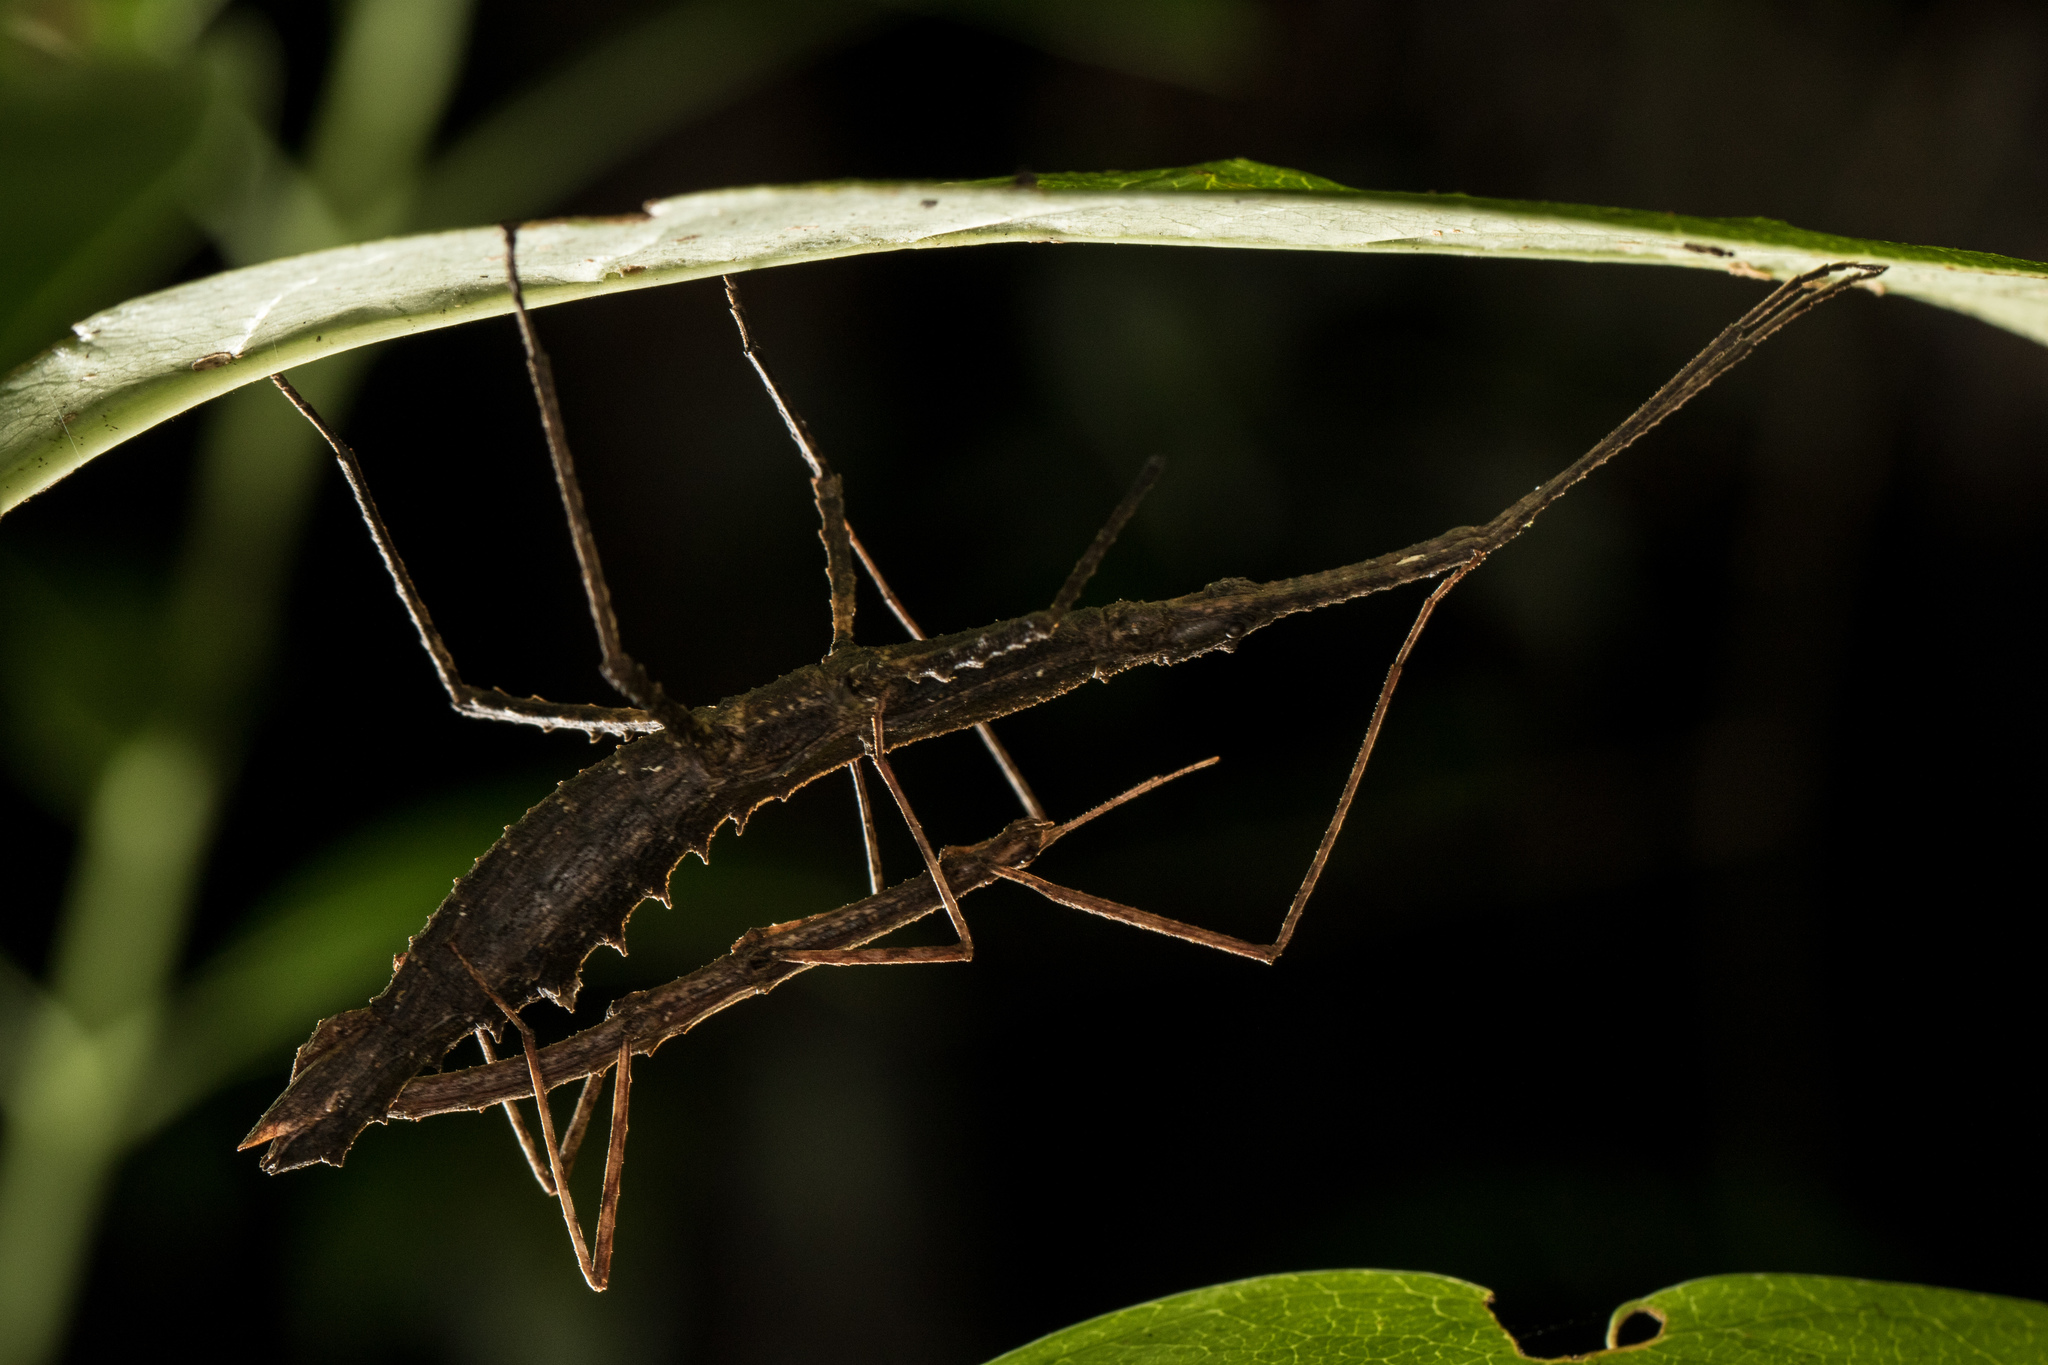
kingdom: Animalia
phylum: Arthropoda
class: Insecta
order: Phasmida
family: Phasmatidae
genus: Spinotectarchus
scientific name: Spinotectarchus acornutus
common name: The spiny ridge-backed stick insect
